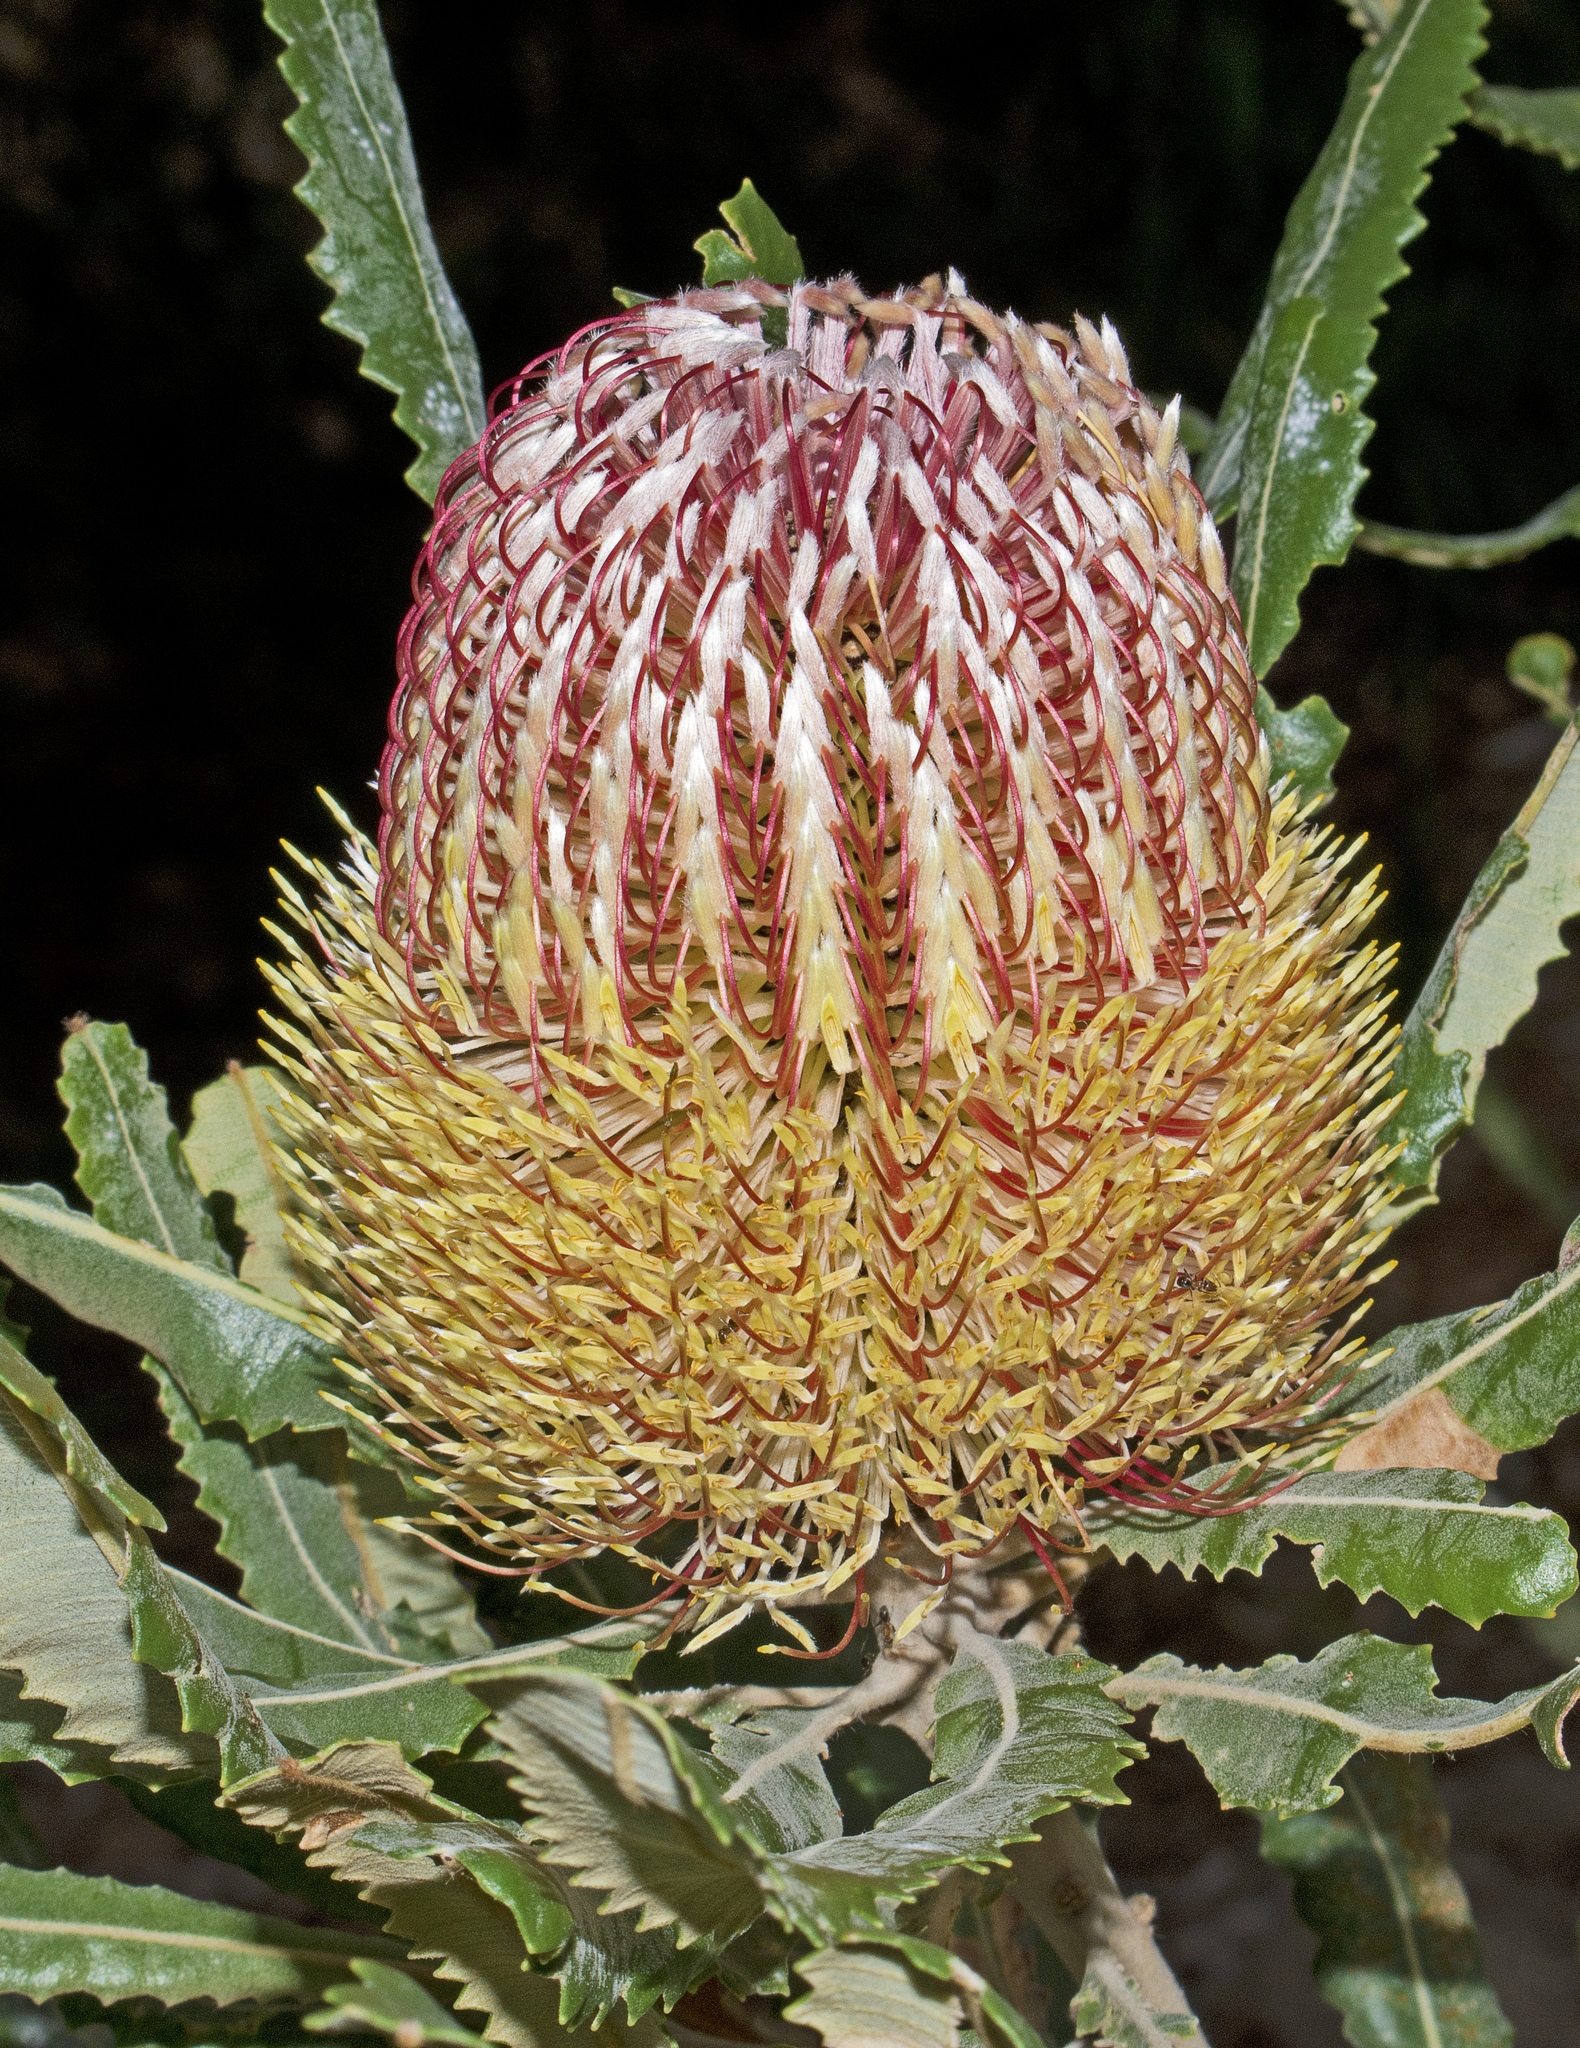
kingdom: Plantae
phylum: Tracheophyta
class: Magnoliopsida
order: Proteales
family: Proteaceae
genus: Banksia
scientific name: Banksia menziesii
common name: Menzie's banksia
